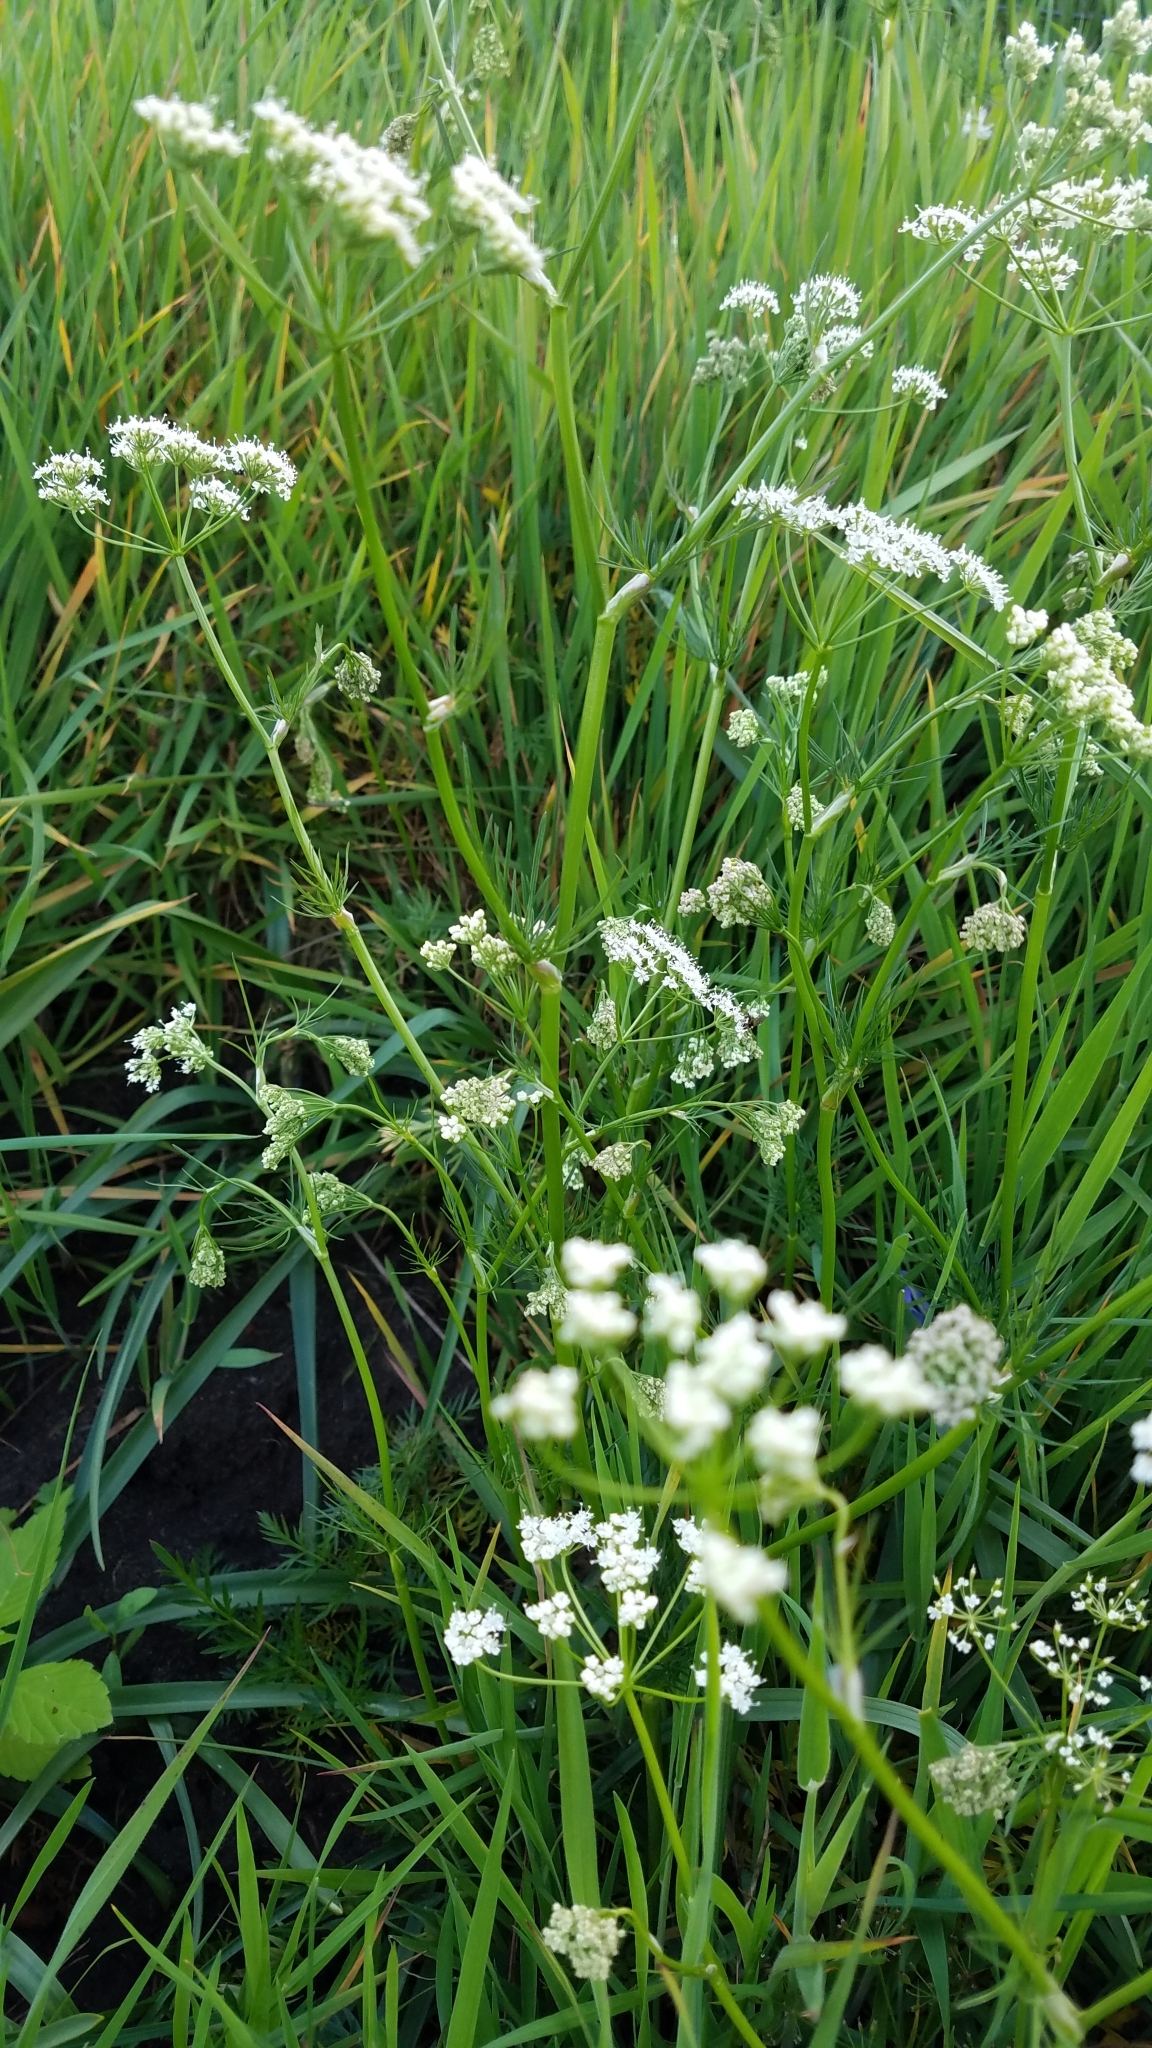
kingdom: Plantae
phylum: Tracheophyta
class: Magnoliopsida
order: Apiales
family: Apiaceae
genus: Conopodium
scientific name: Conopodium majus
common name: Pignut
